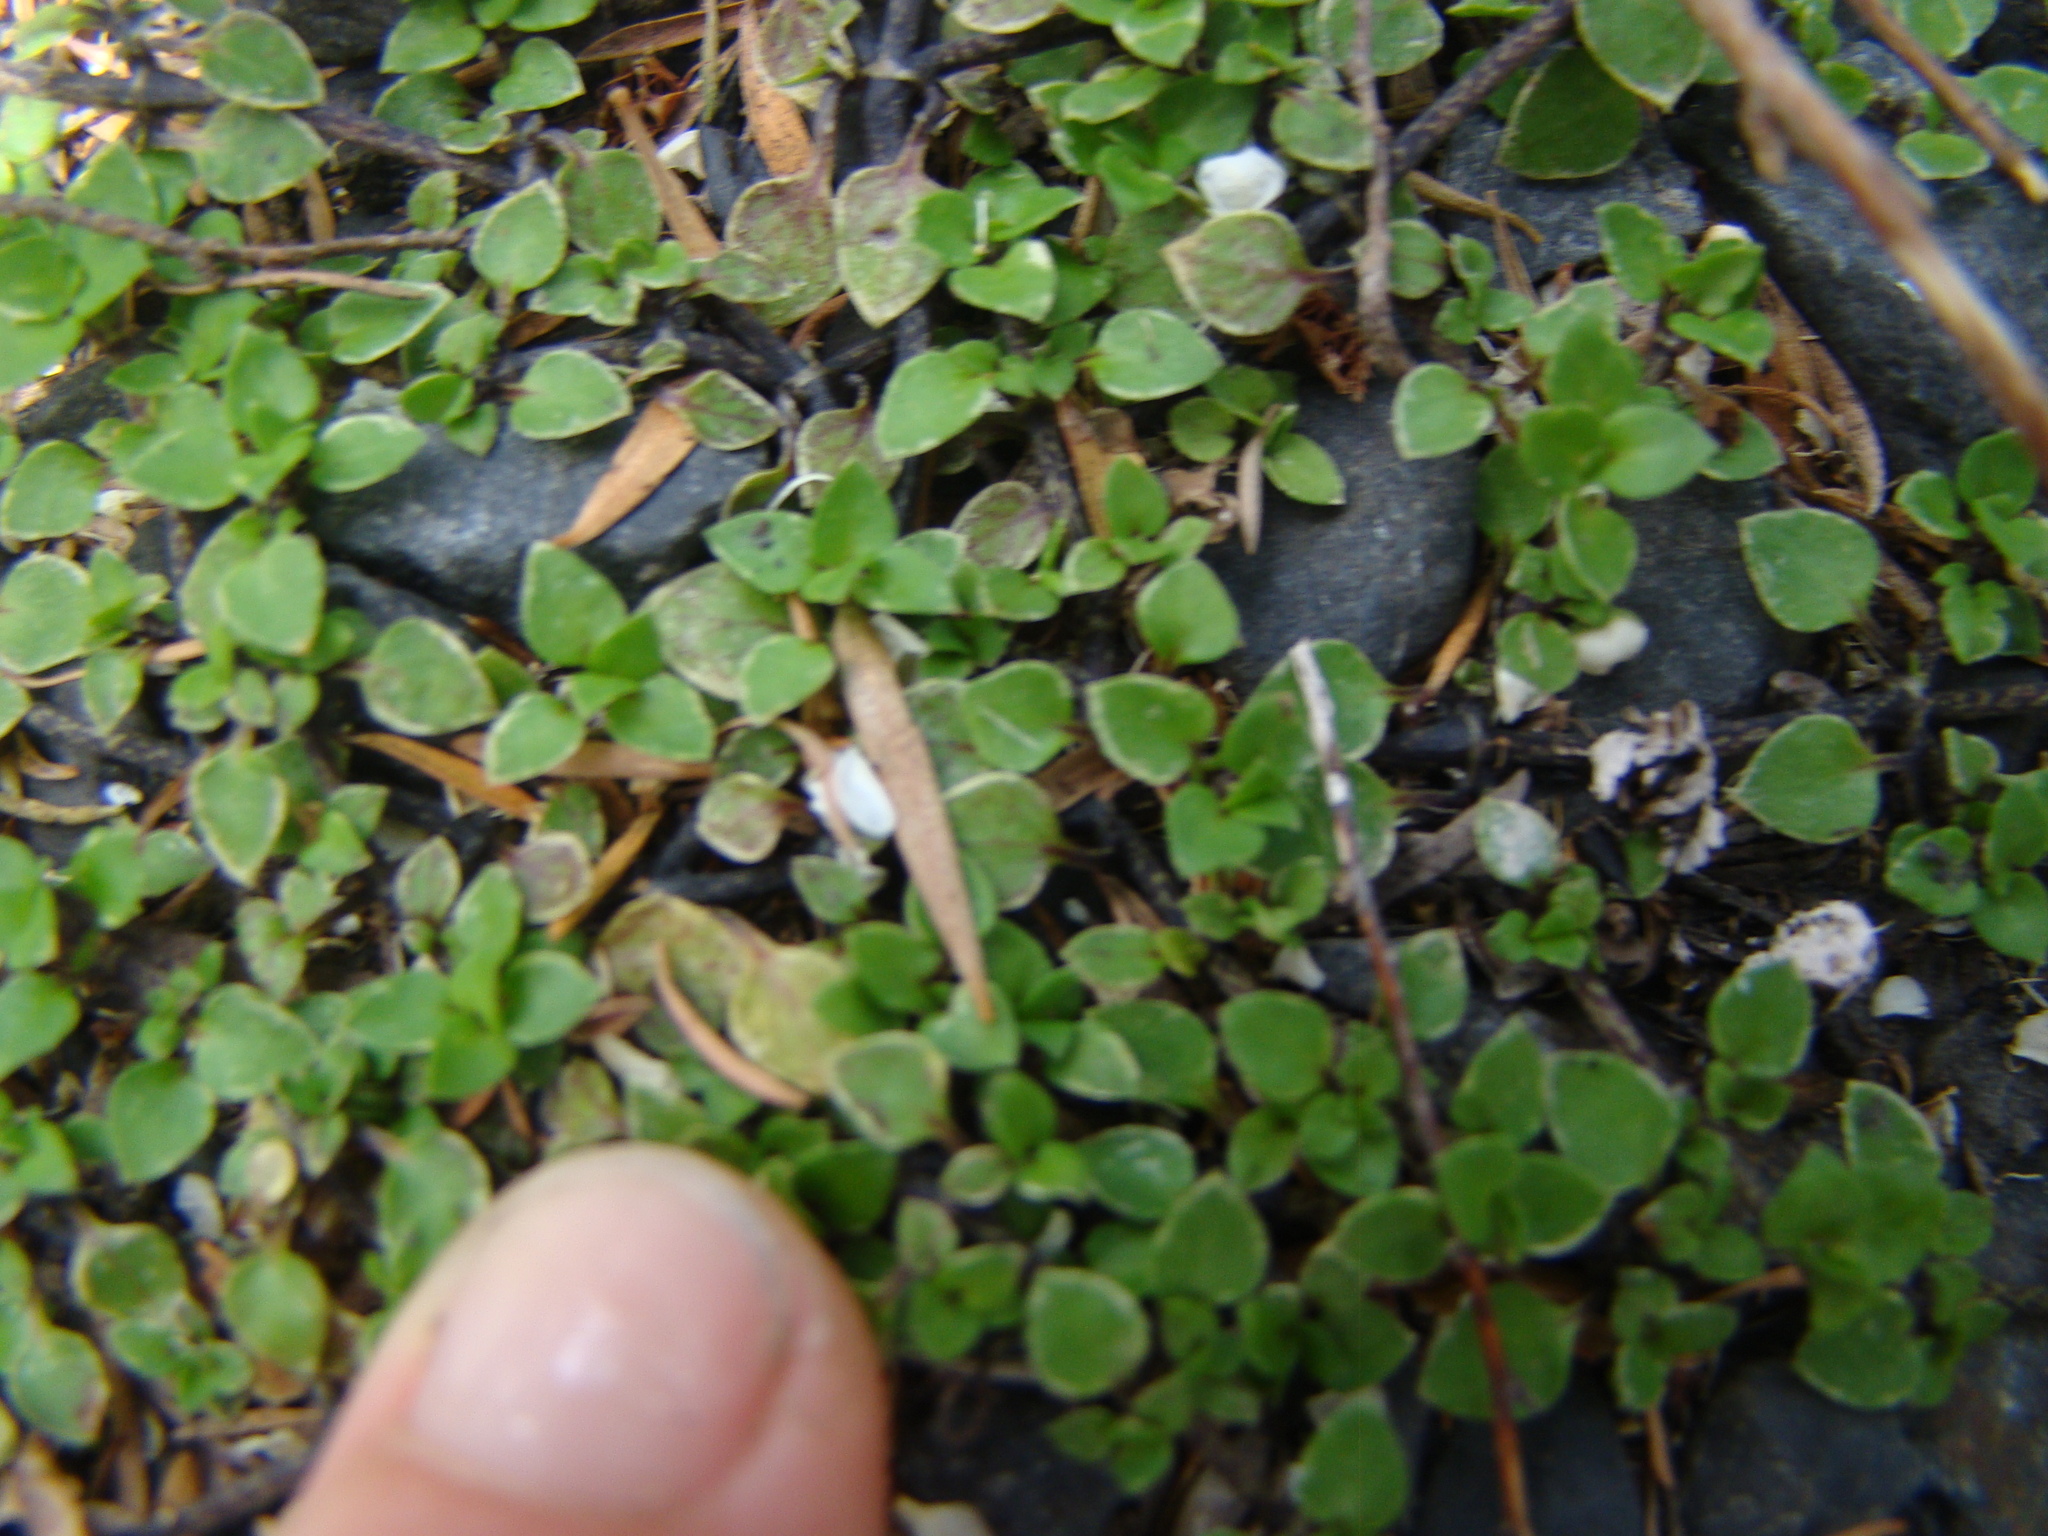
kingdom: Plantae
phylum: Tracheophyta
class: Magnoliopsida
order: Gentianales
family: Rubiaceae
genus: Nertera
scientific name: Nertera granadensis
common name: Beadplant
